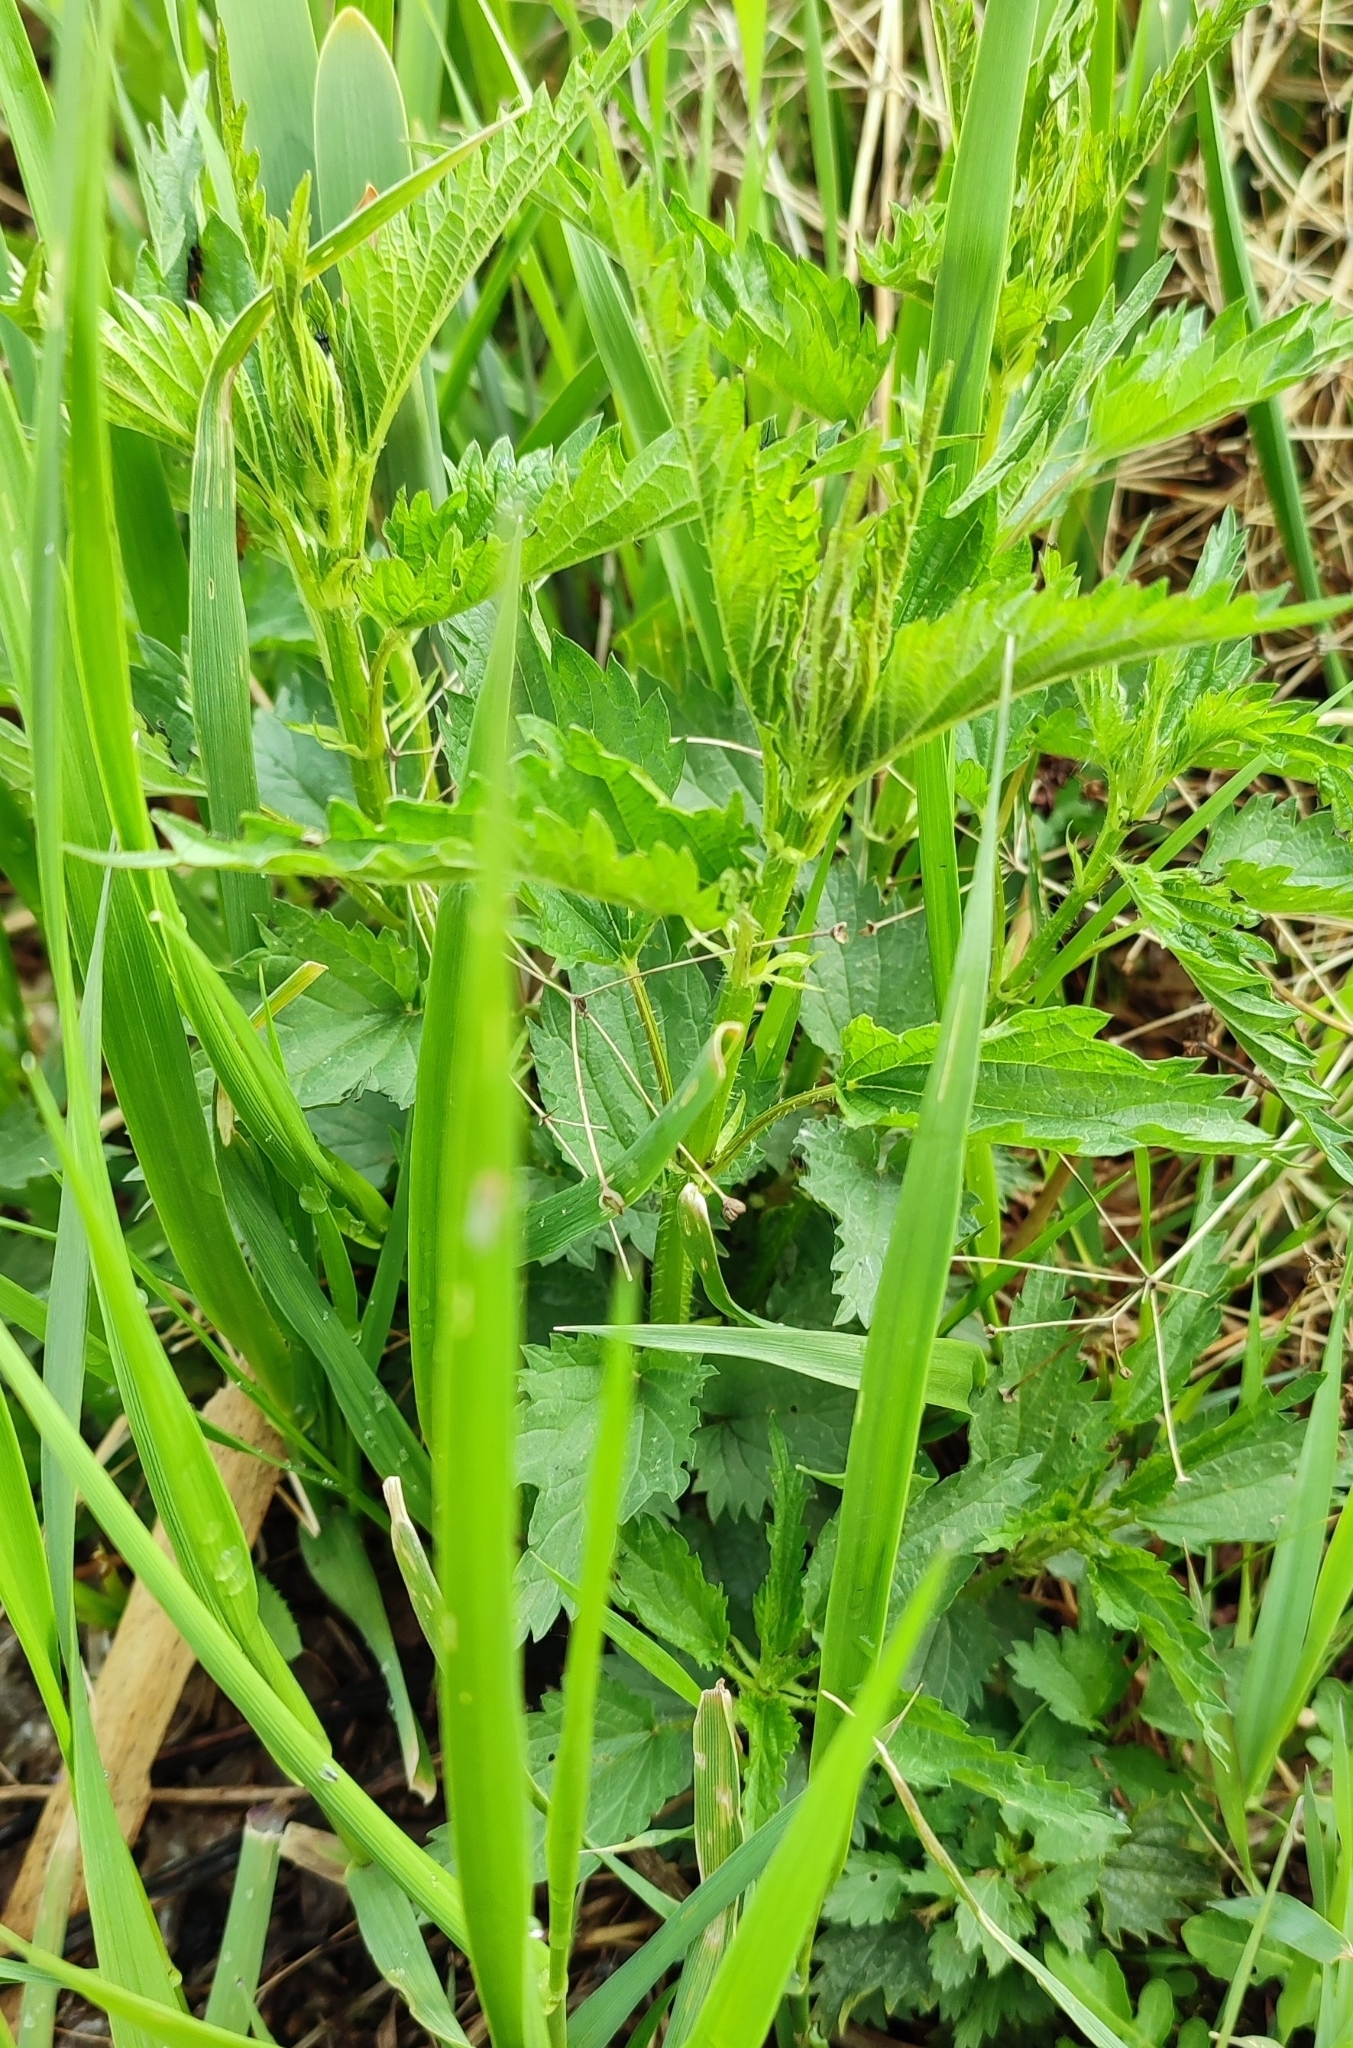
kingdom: Plantae
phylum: Tracheophyta
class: Magnoliopsida
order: Rosales
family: Urticaceae
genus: Urtica
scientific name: Urtica dioica
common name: Common nettle
